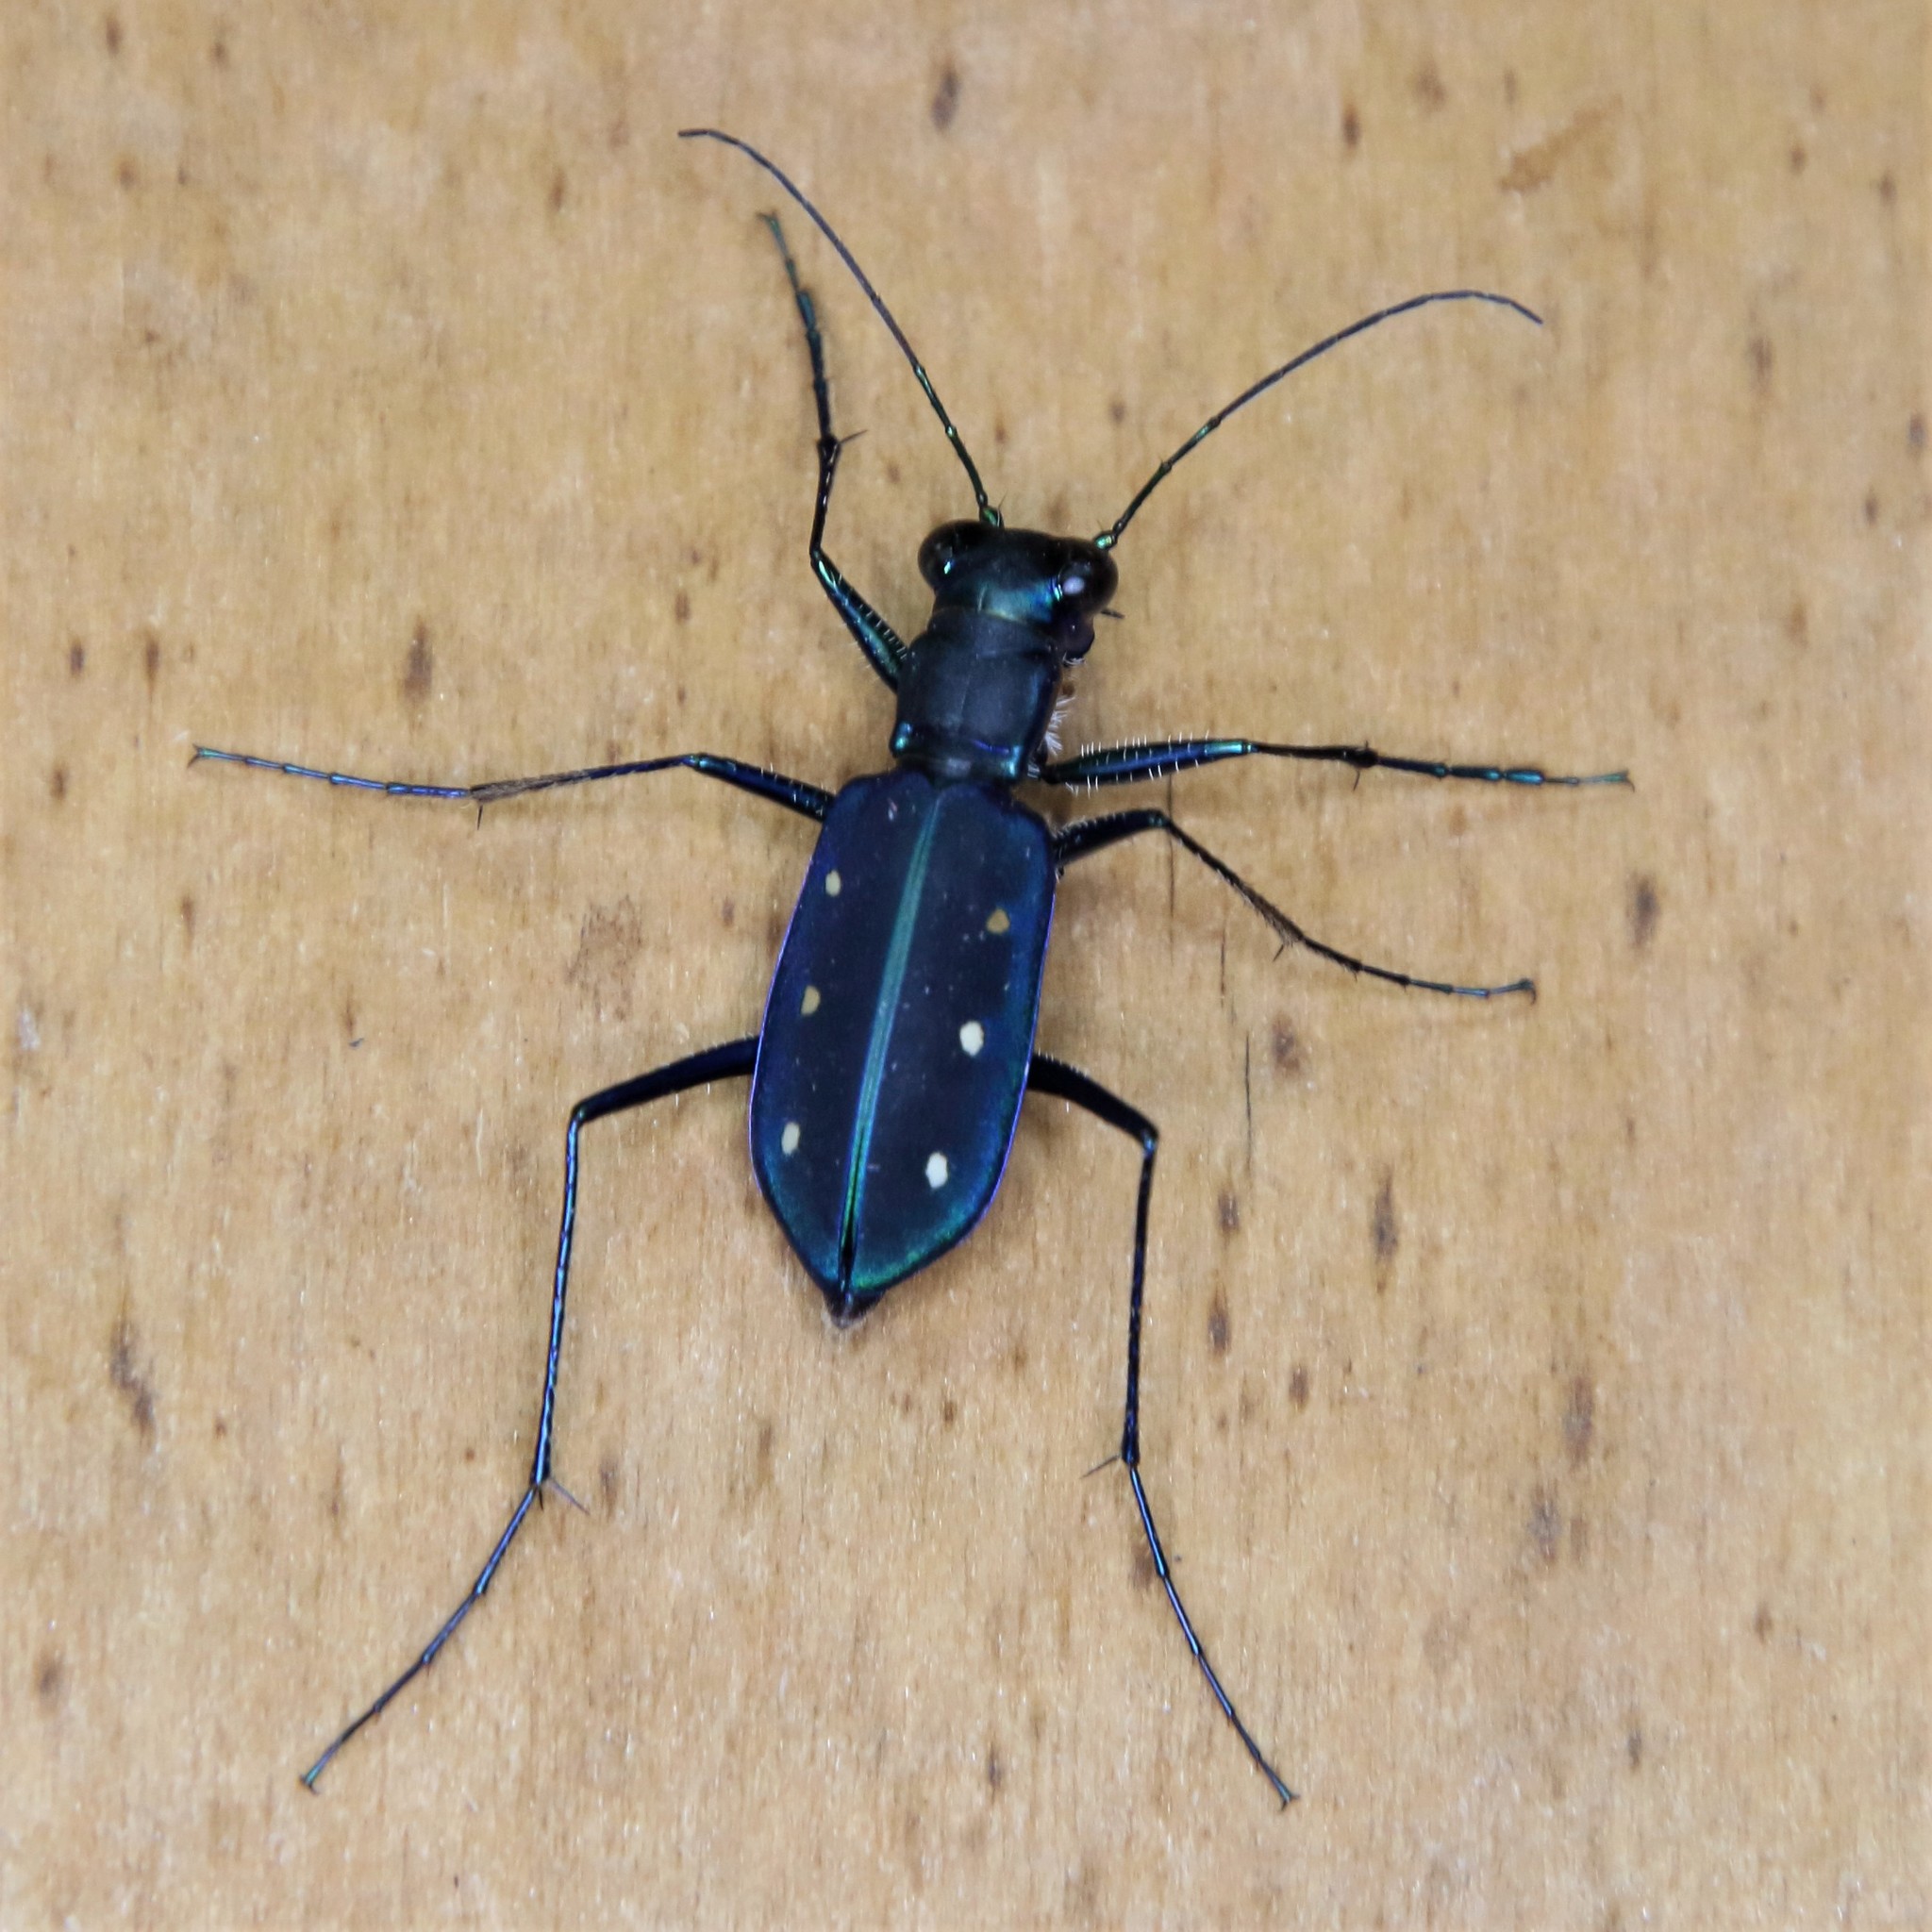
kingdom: Animalia
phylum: Arthropoda
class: Insecta
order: Coleoptera
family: Carabidae
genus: Cicindela
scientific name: Cicindela flavomaculata
